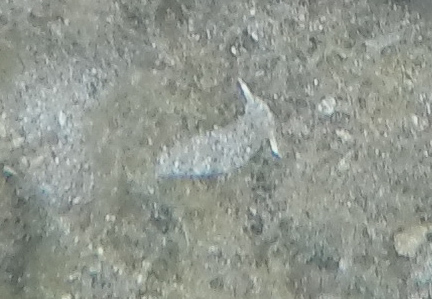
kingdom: Animalia
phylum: Mollusca
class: Gastropoda
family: Plakobranchidae
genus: Plakobranchus
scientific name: Plakobranchus ocellatus
